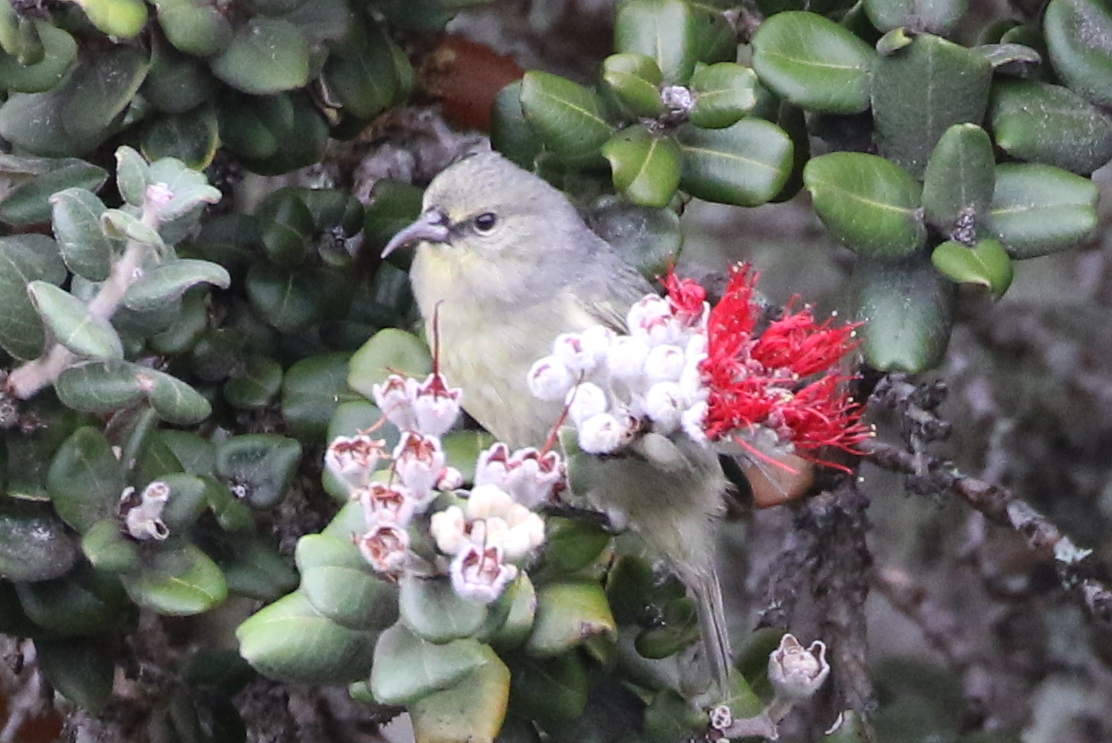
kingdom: Animalia
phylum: Chordata
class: Aves
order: Passeriformes
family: Fringillidae
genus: Chlorodrepanis
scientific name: Chlorodrepanis virens
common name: Hawaii amakihi
